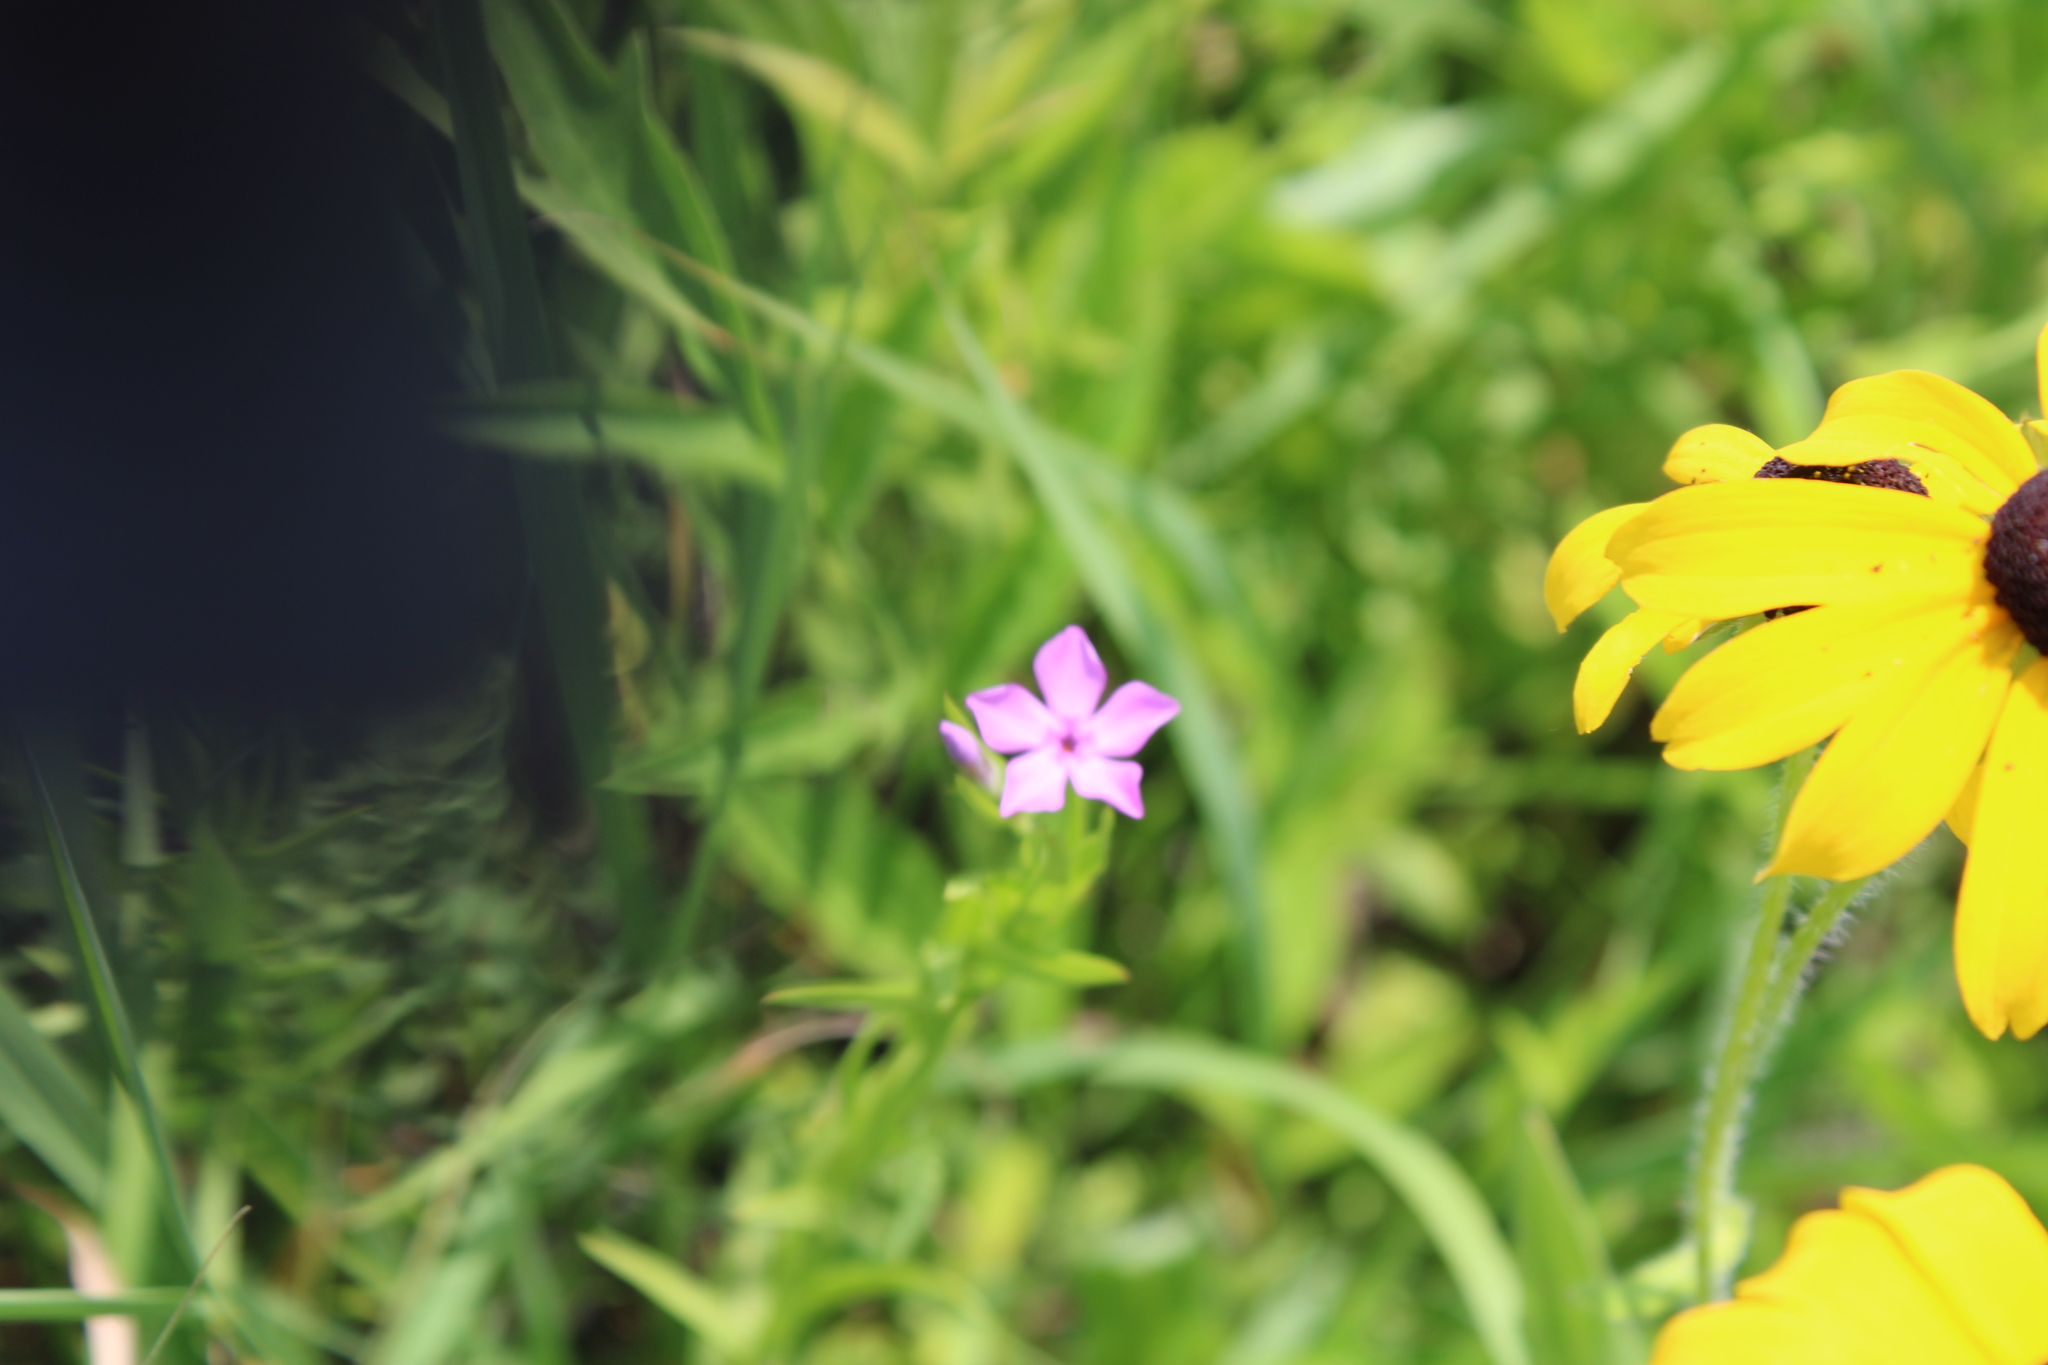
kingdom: Plantae
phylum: Tracheophyta
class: Magnoliopsida
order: Ericales
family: Polemoniaceae
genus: Phlox
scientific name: Phlox pilosa
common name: Prairie phlox
